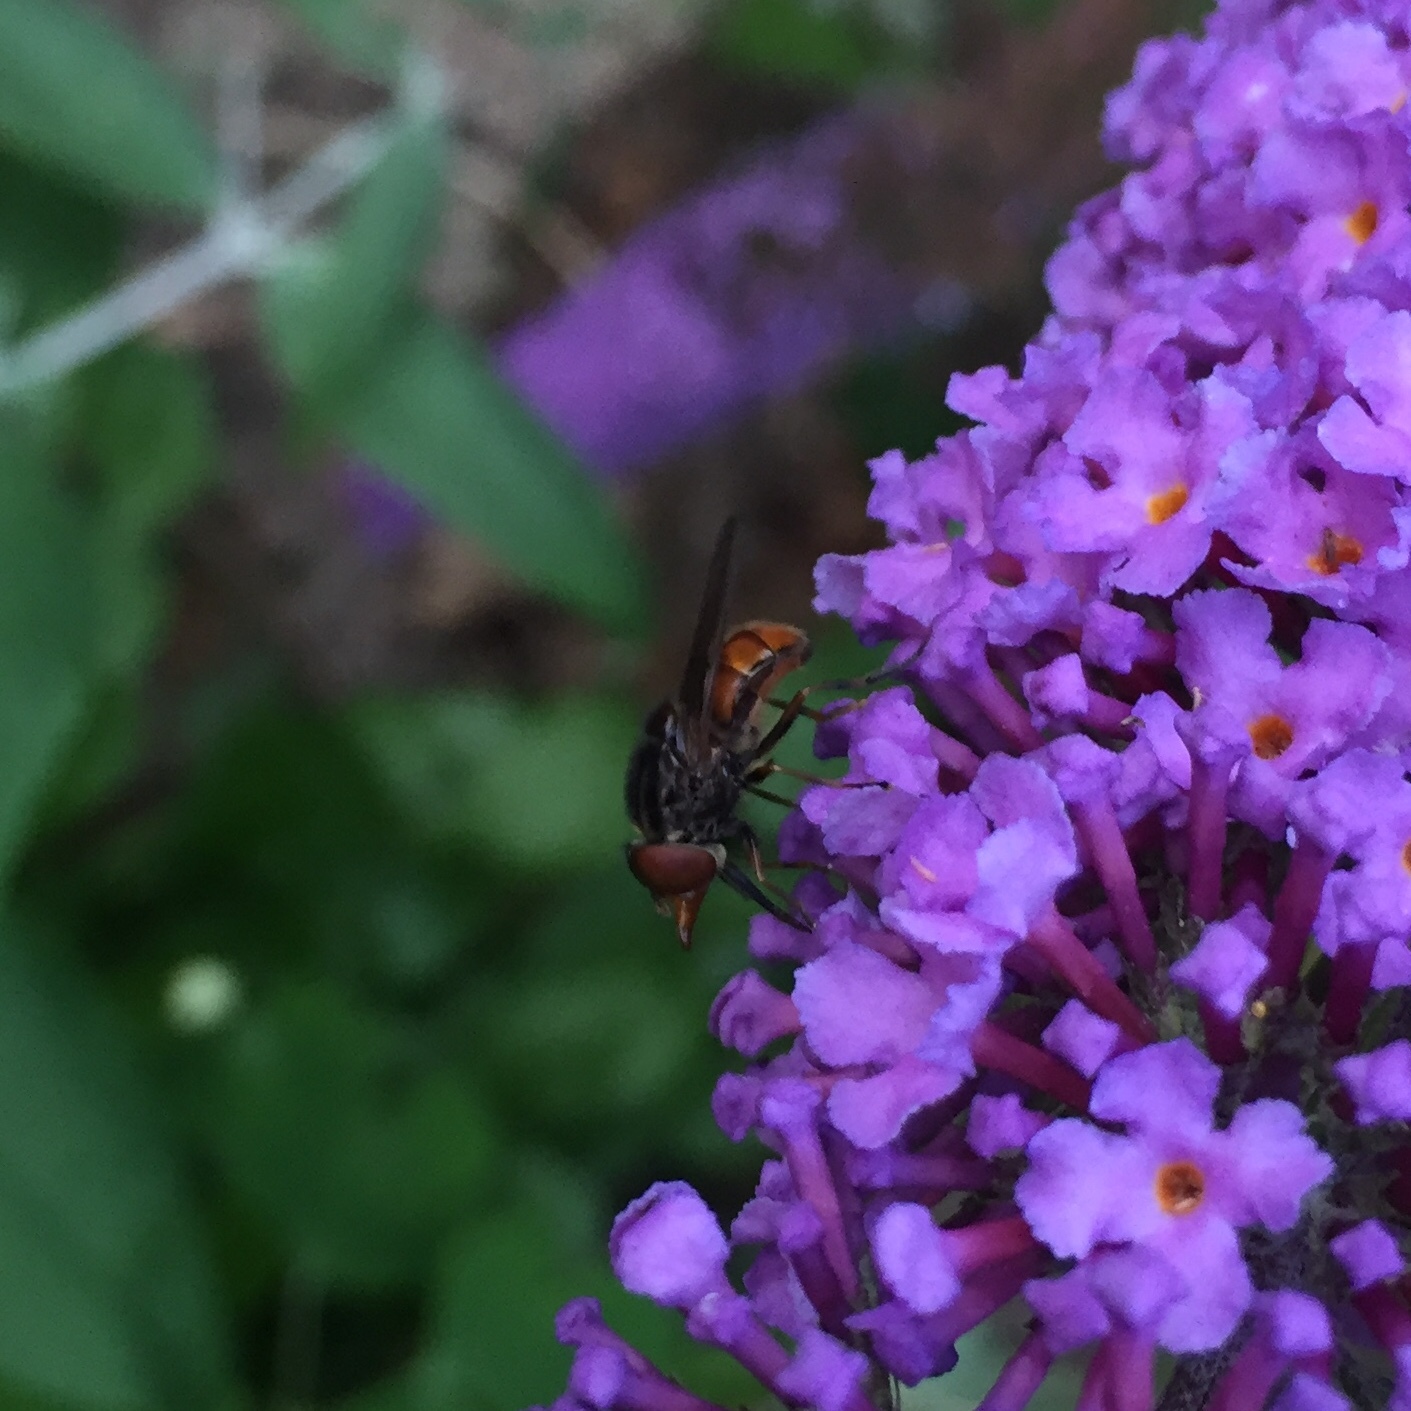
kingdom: Animalia
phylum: Arthropoda
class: Insecta
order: Diptera
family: Syrphidae
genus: Rhingia
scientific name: Rhingia campestris
